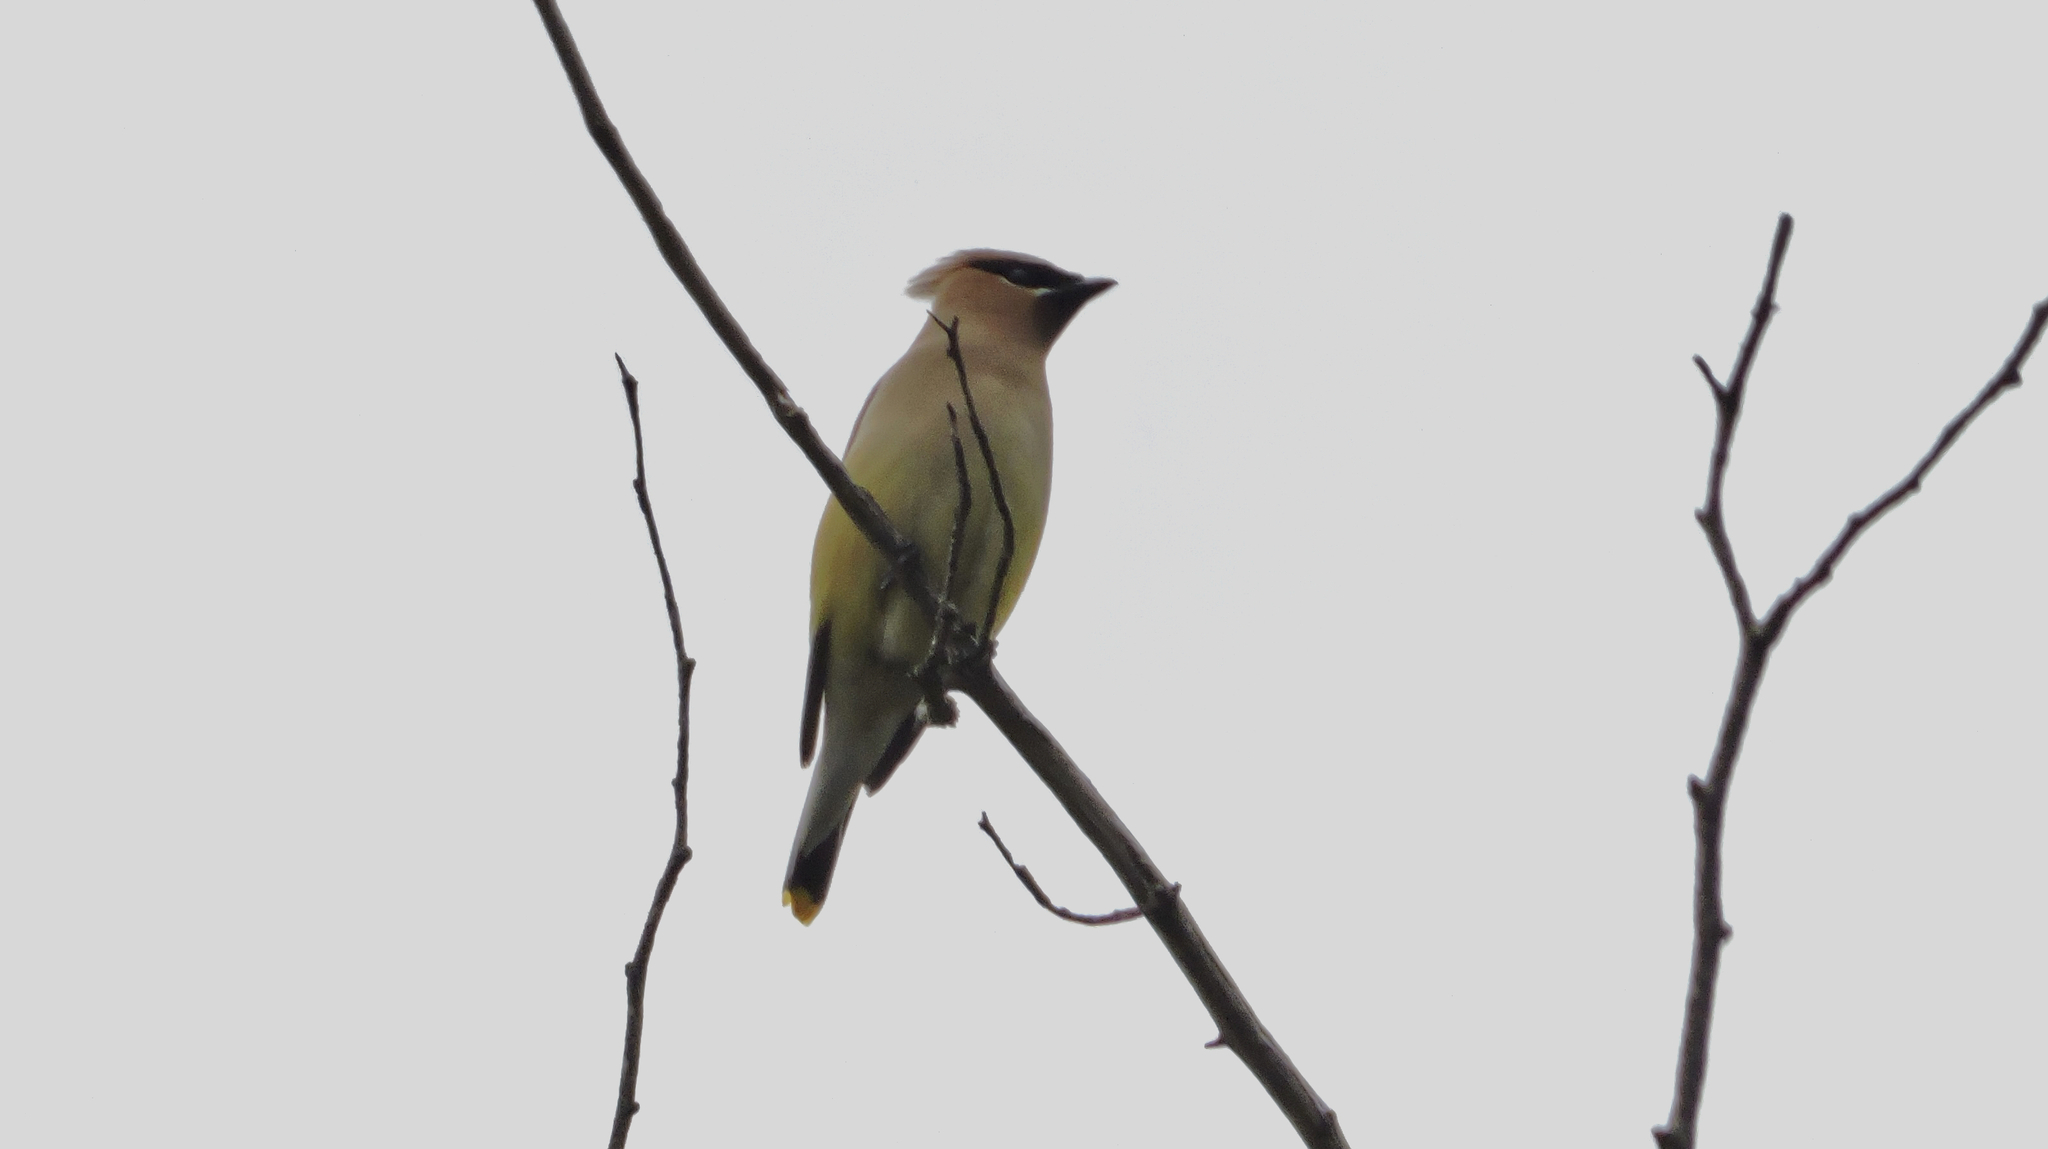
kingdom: Animalia
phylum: Chordata
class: Aves
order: Passeriformes
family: Bombycillidae
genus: Bombycilla
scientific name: Bombycilla cedrorum
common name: Cedar waxwing
